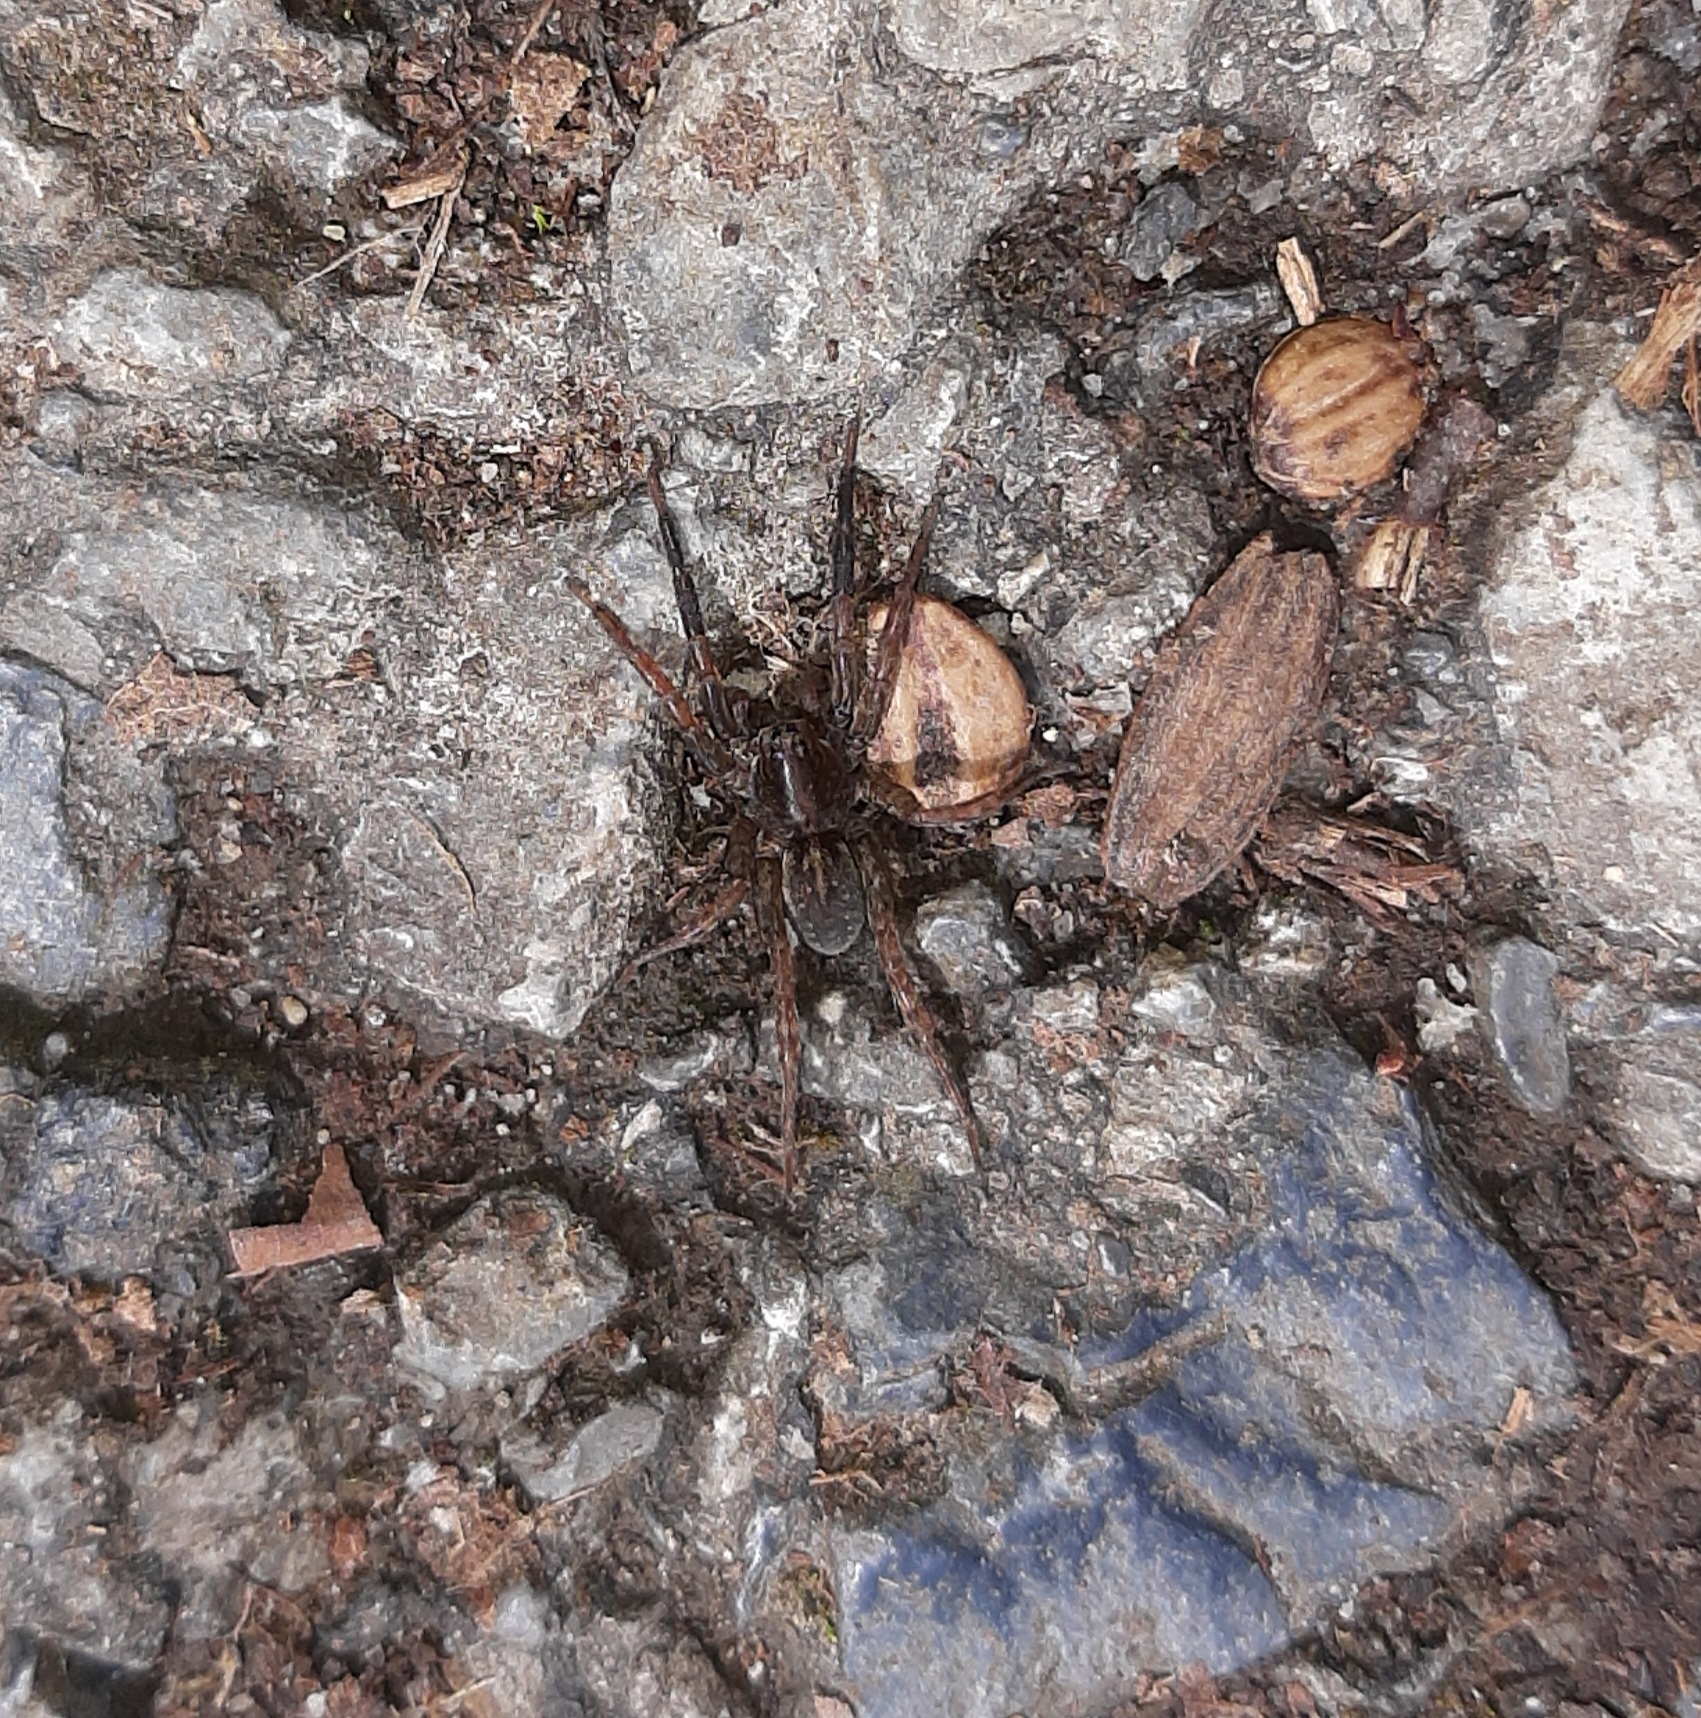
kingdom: Animalia
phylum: Arthropoda
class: Arachnida
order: Araneae
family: Lycosidae
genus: Trochosa
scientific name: Trochosa
